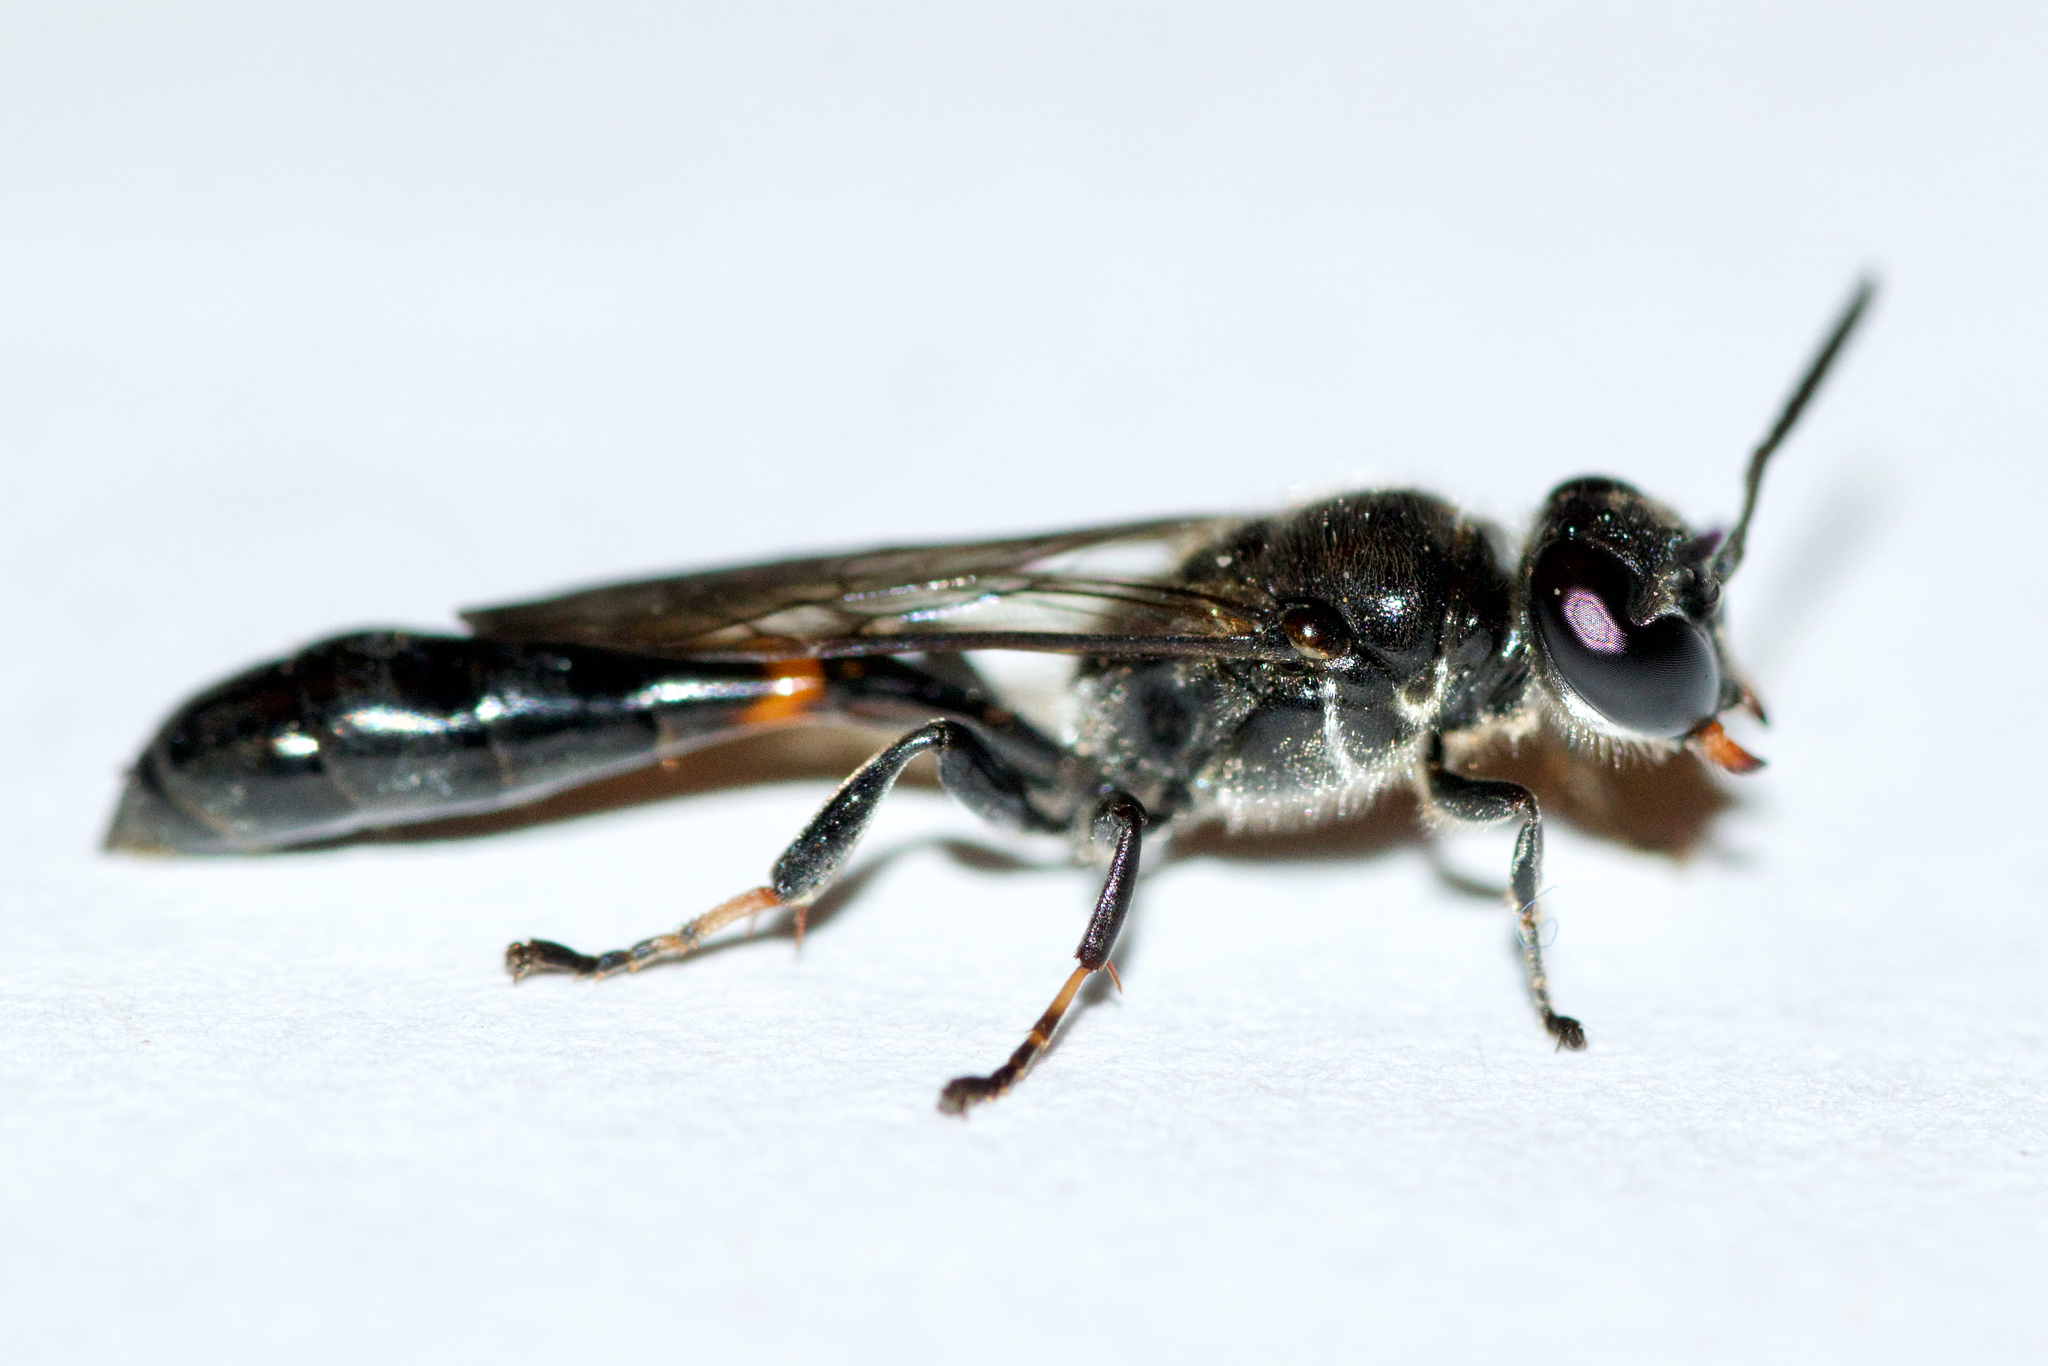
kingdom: Animalia
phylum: Arthropoda
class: Insecta
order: Hymenoptera
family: Crabronidae
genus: Trypoxylon
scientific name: Trypoxylon collinum
